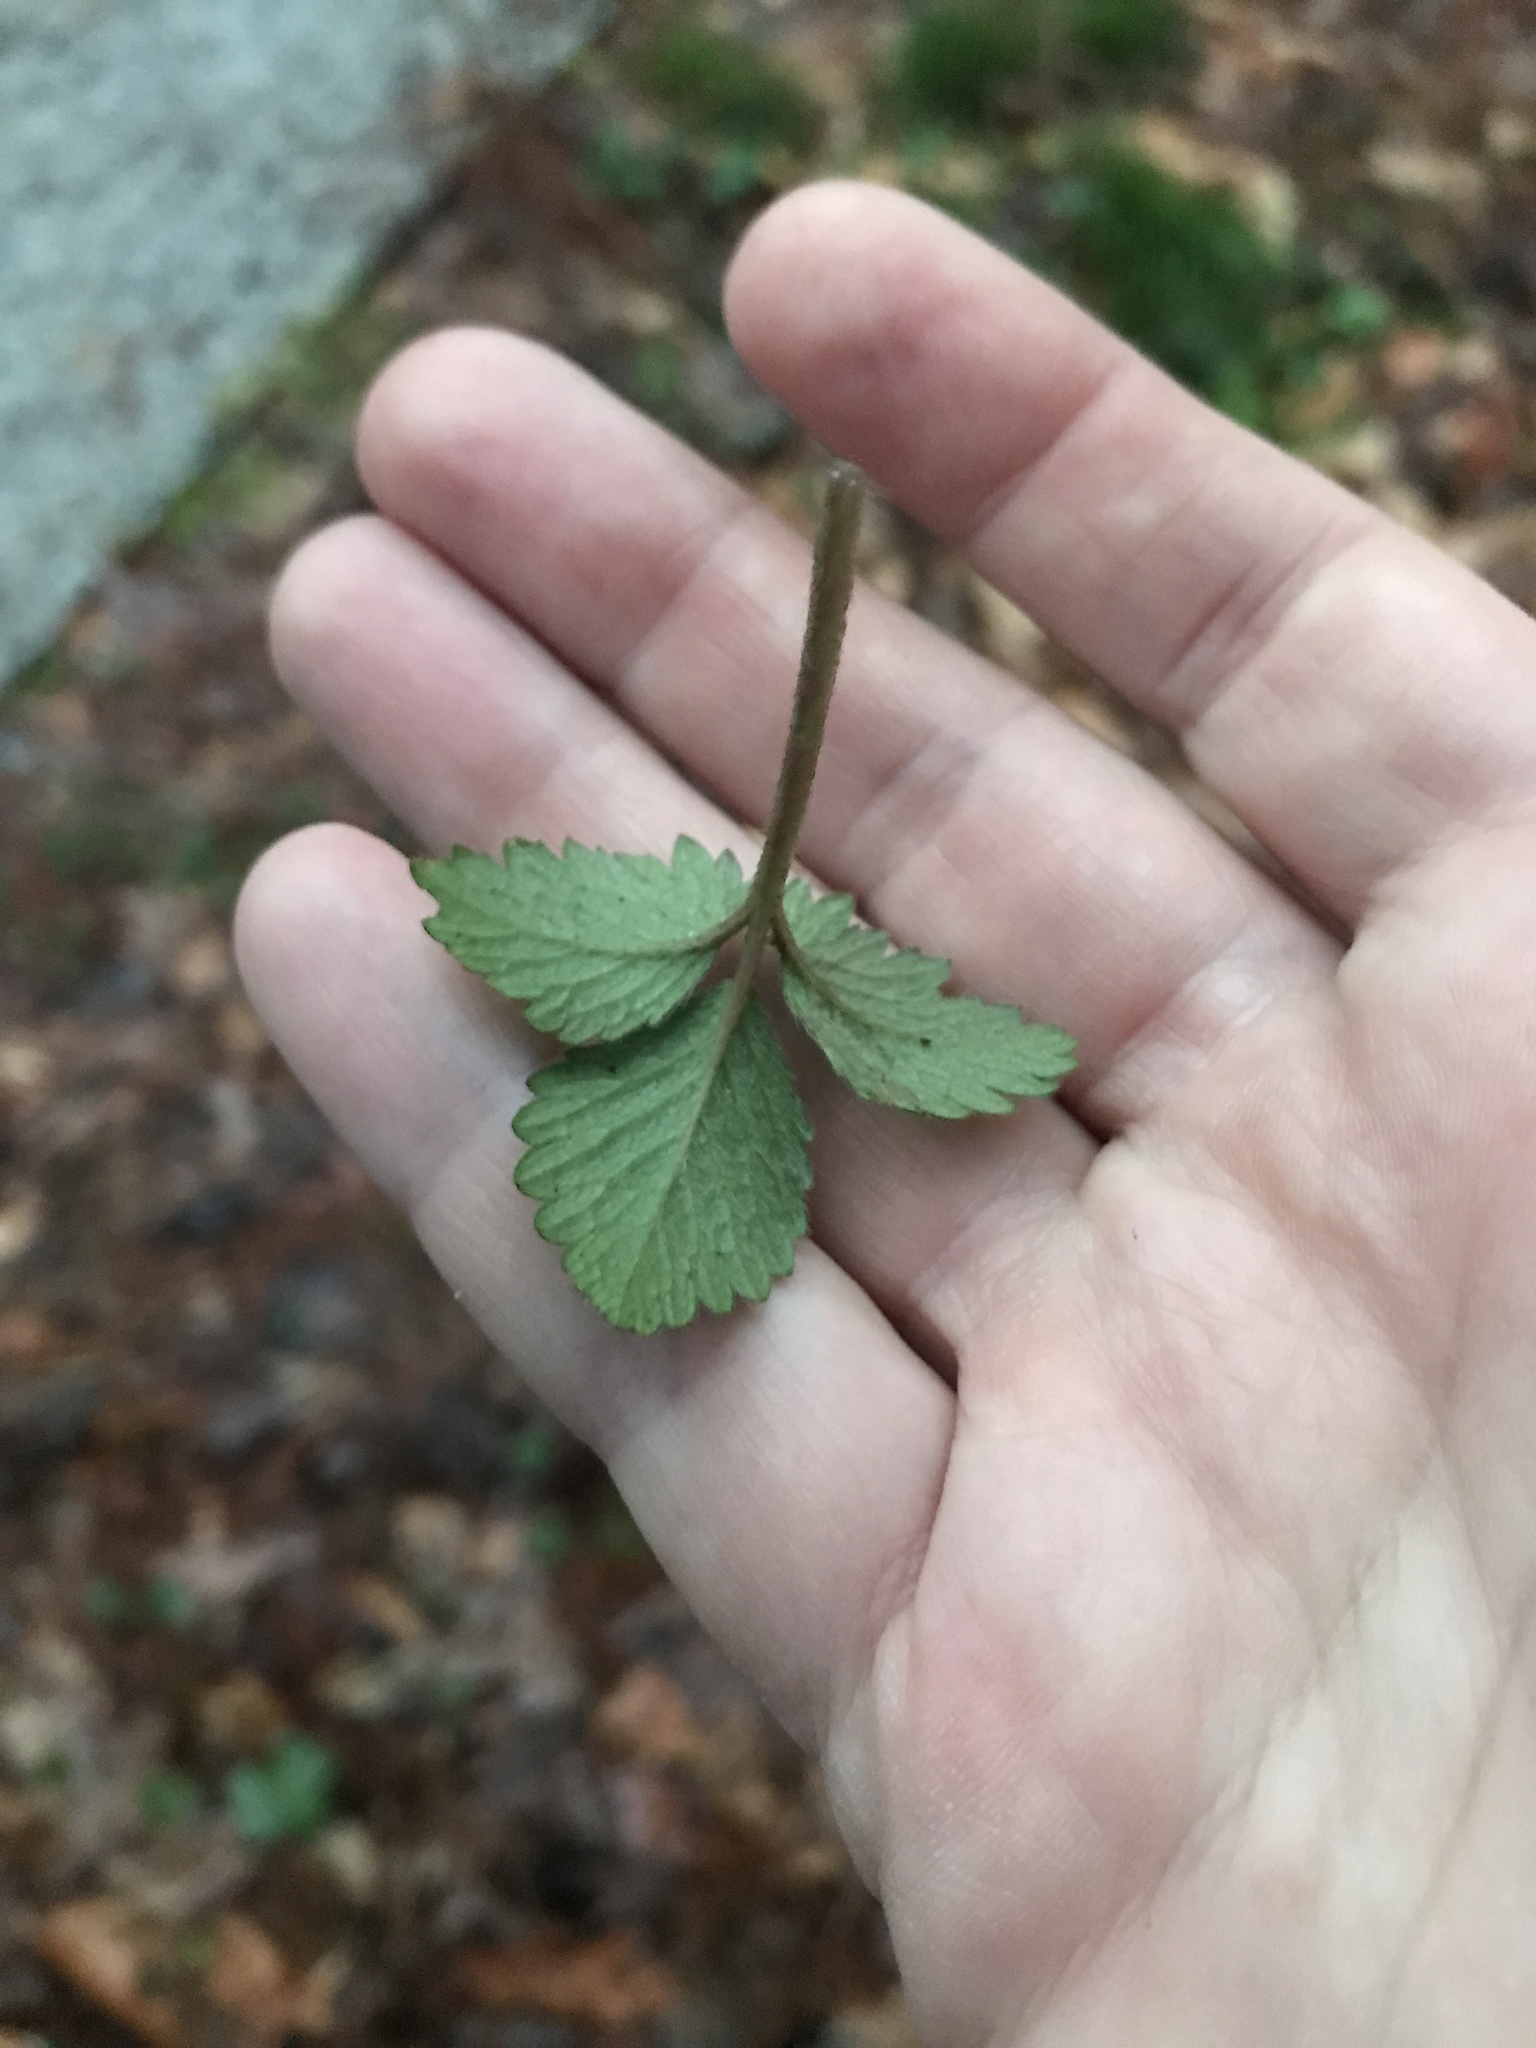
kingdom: Plantae
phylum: Tracheophyta
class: Magnoliopsida
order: Rosales
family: Rosaceae
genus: Potentilla
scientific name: Potentilla indica
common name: Yellow-flowered strawberry
